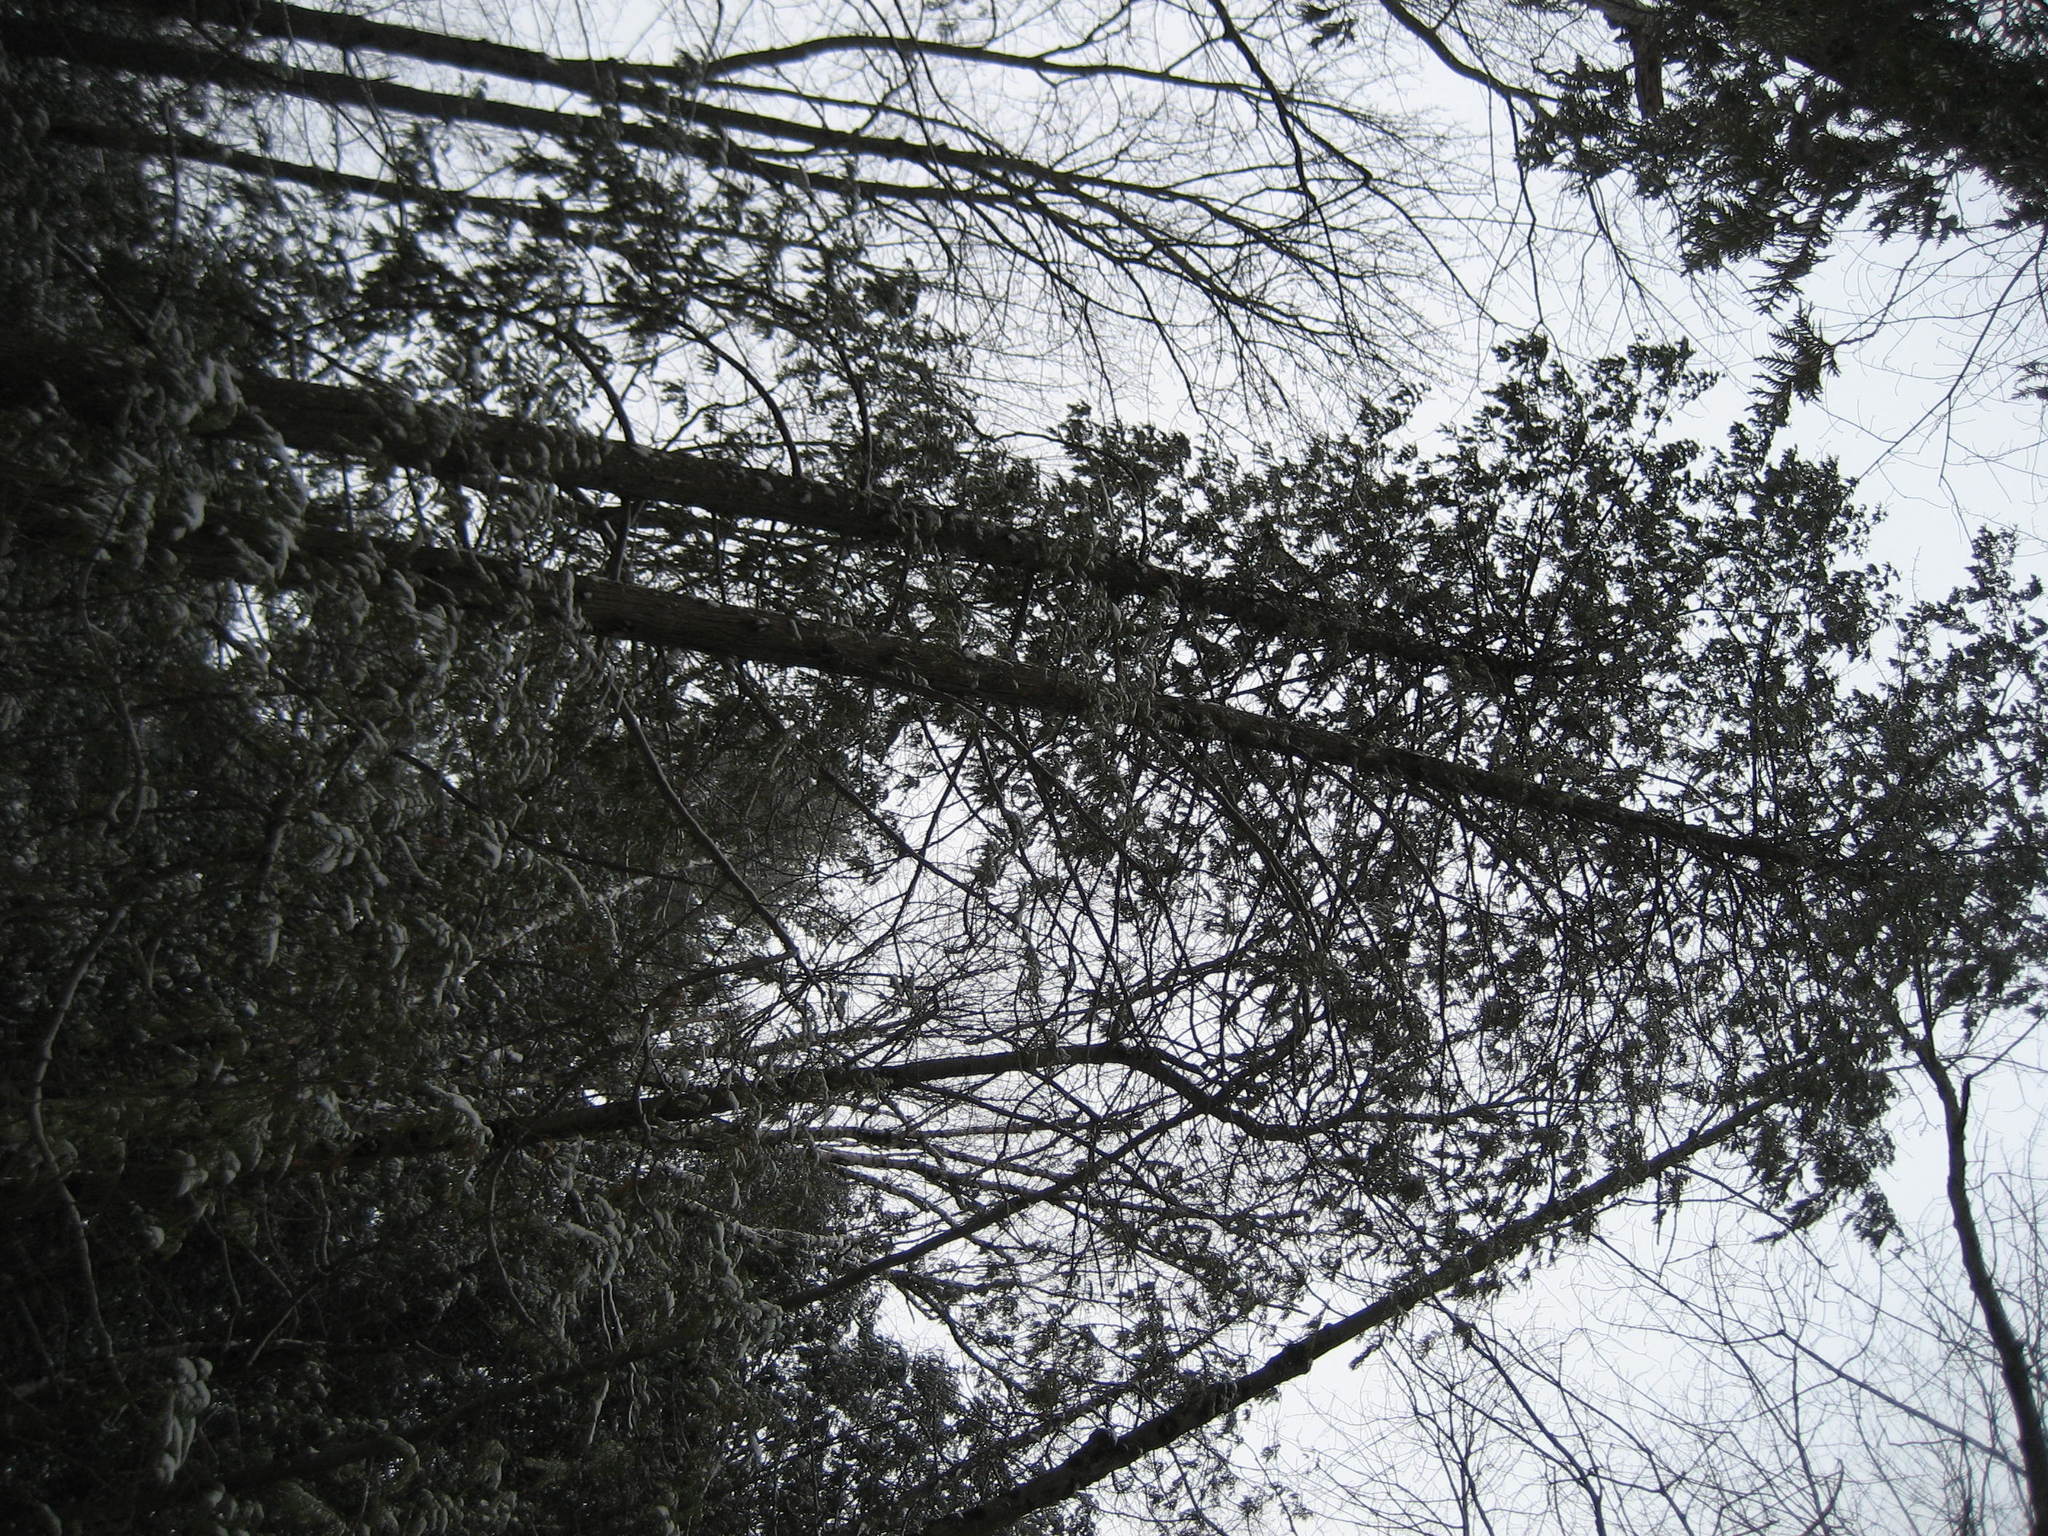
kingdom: Plantae
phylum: Tracheophyta
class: Pinopsida
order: Pinales
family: Cupressaceae
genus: Thuja
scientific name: Thuja occidentalis
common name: Northern white-cedar
